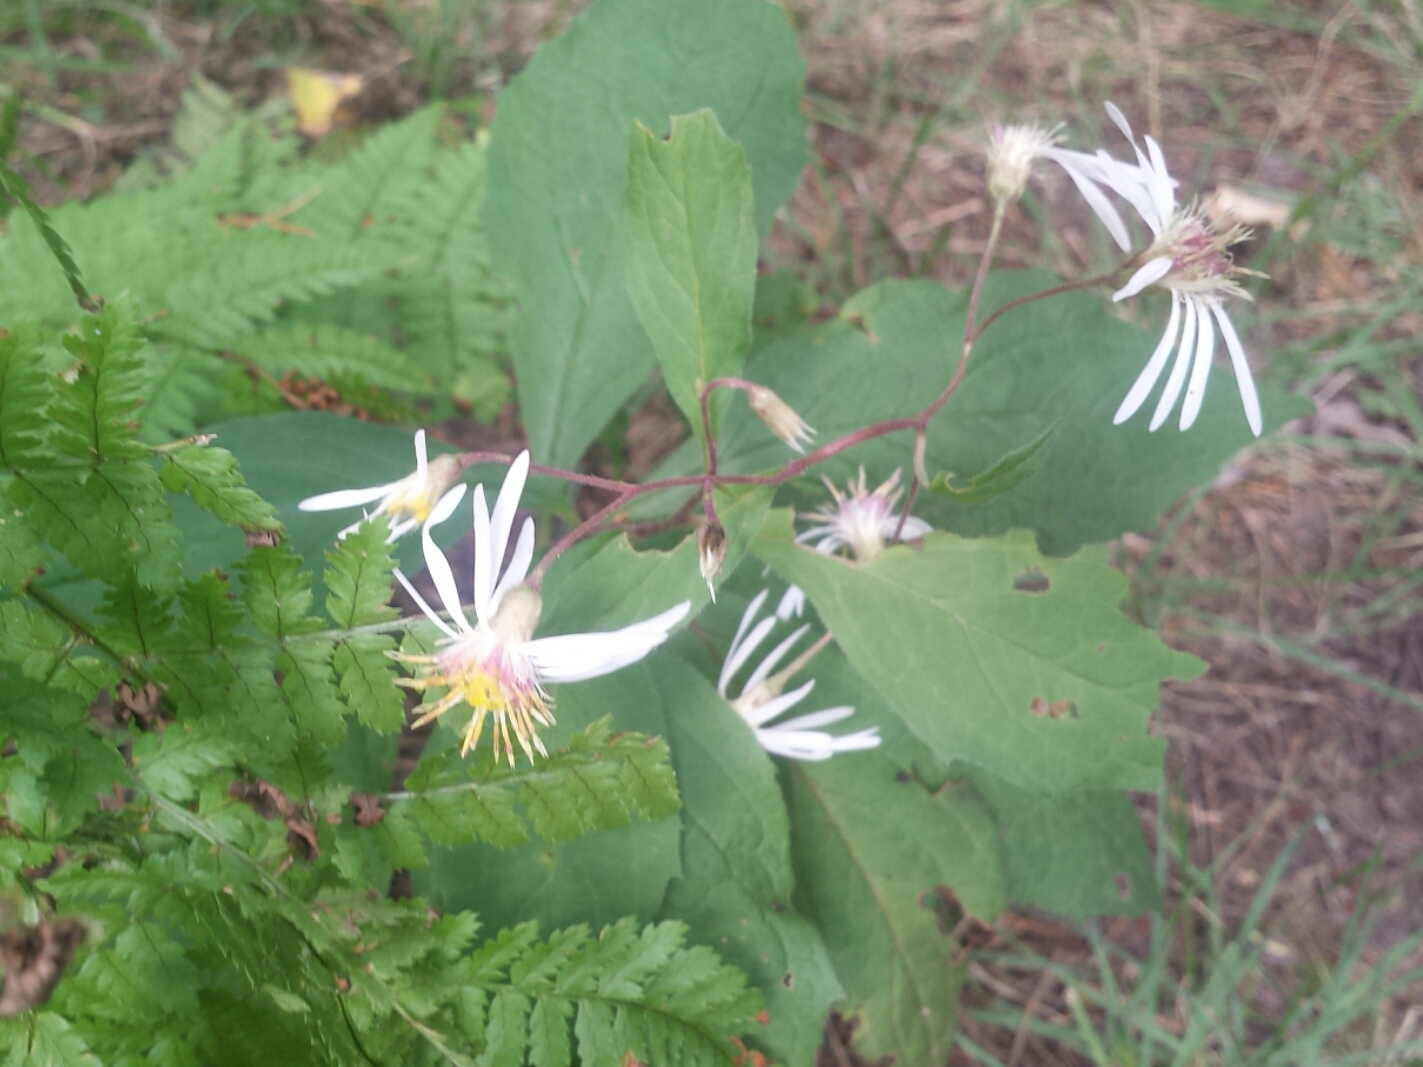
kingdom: Plantae
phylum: Tracheophyta
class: Magnoliopsida
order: Asterales
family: Asteraceae
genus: Oclemena
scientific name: Oclemena acuminata
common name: Mountain aster
